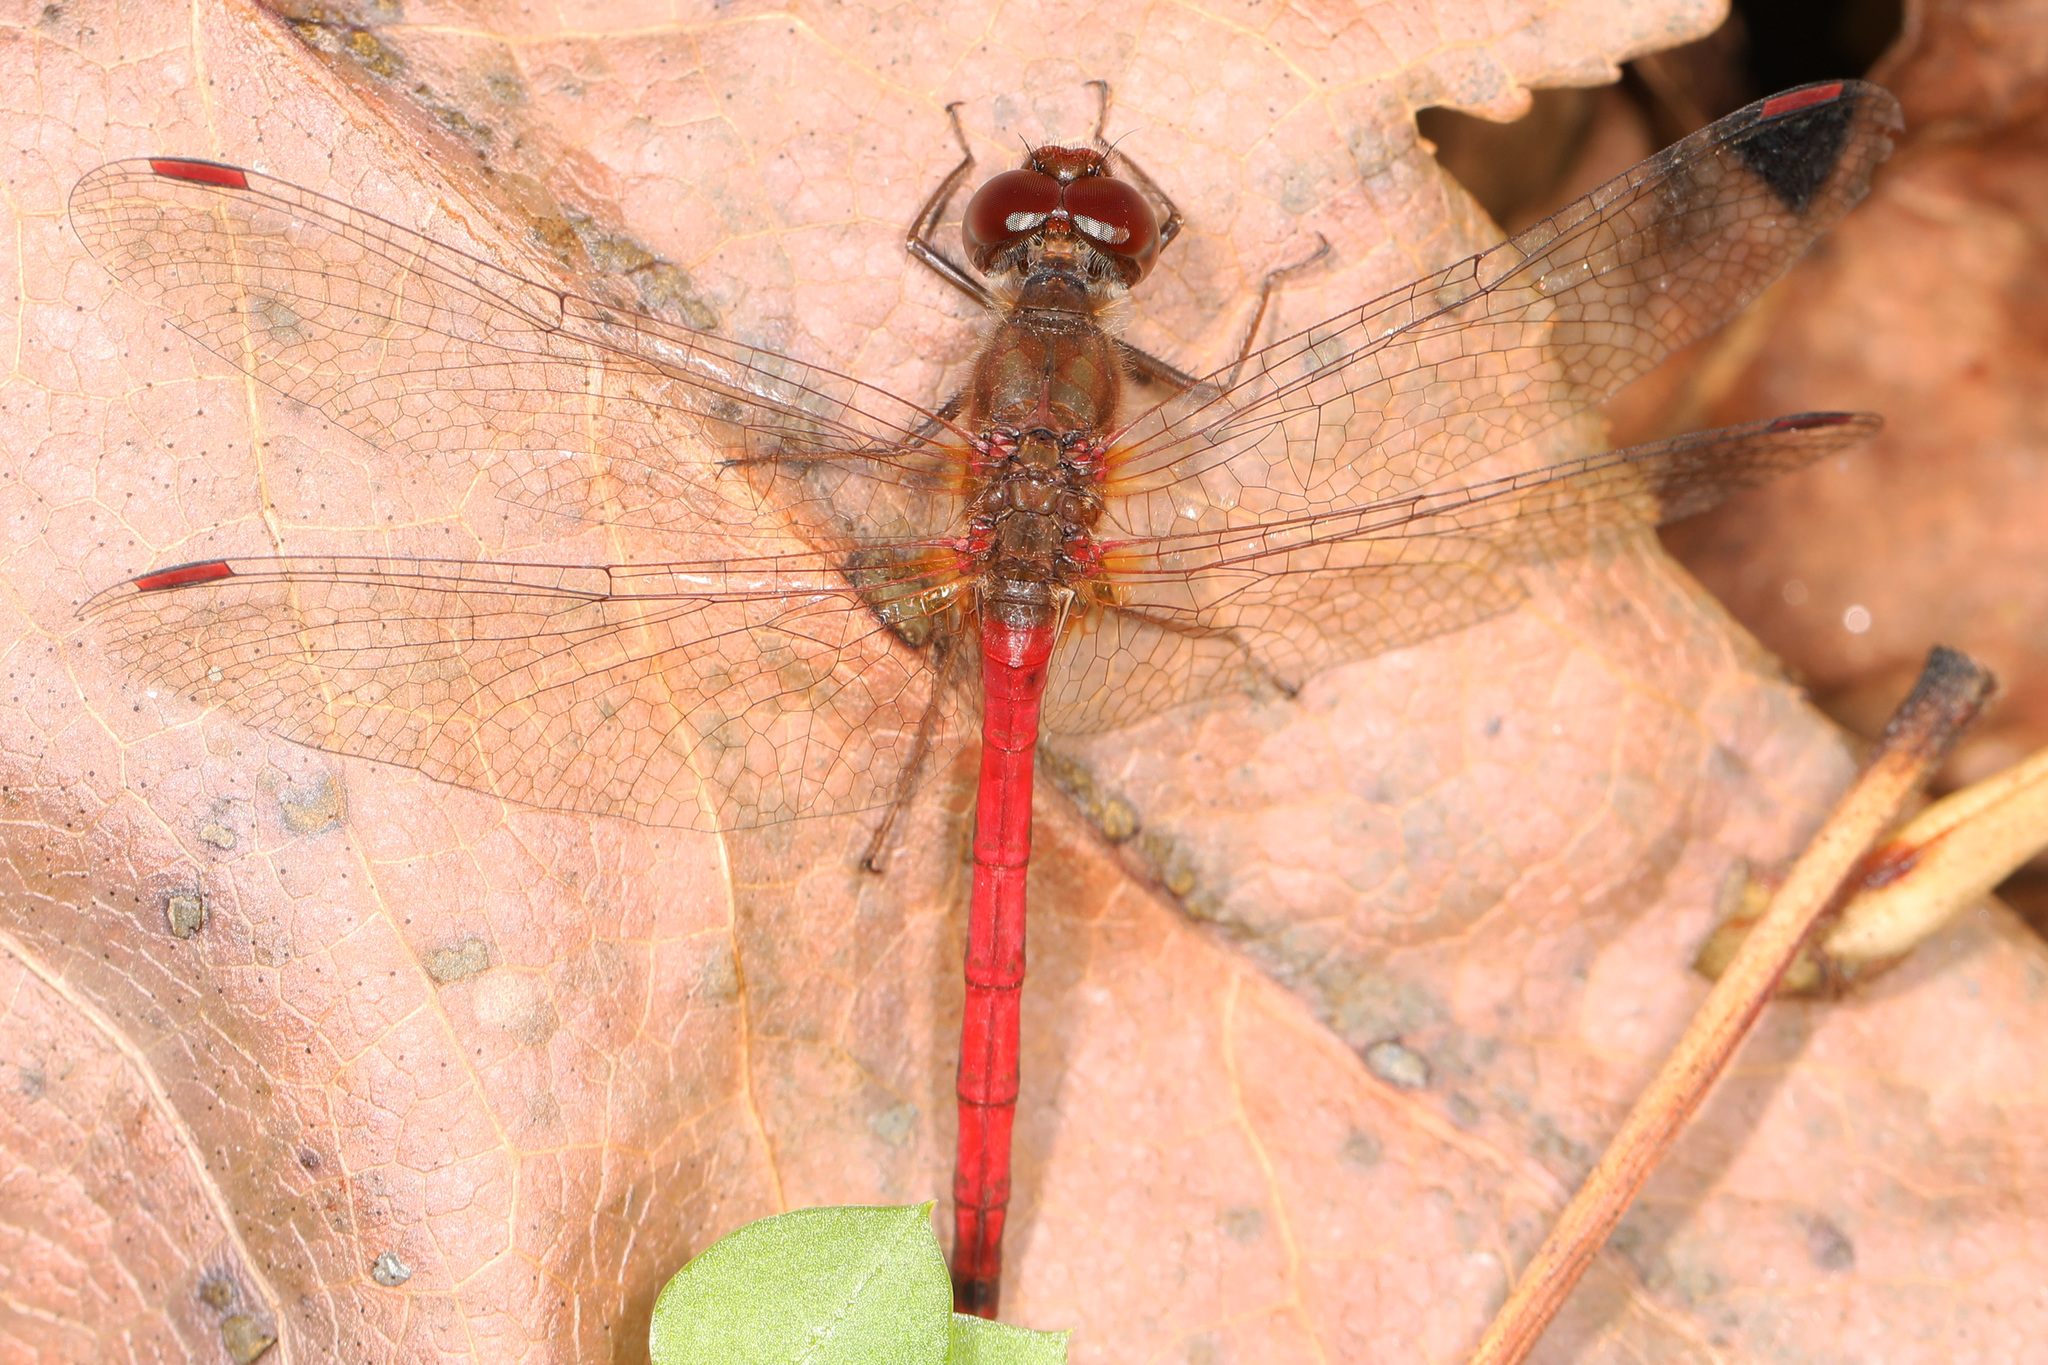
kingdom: Animalia
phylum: Arthropoda
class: Insecta
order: Odonata
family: Libellulidae
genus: Sympetrum
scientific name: Sympetrum vicinum
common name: Autumn meadowhawk
